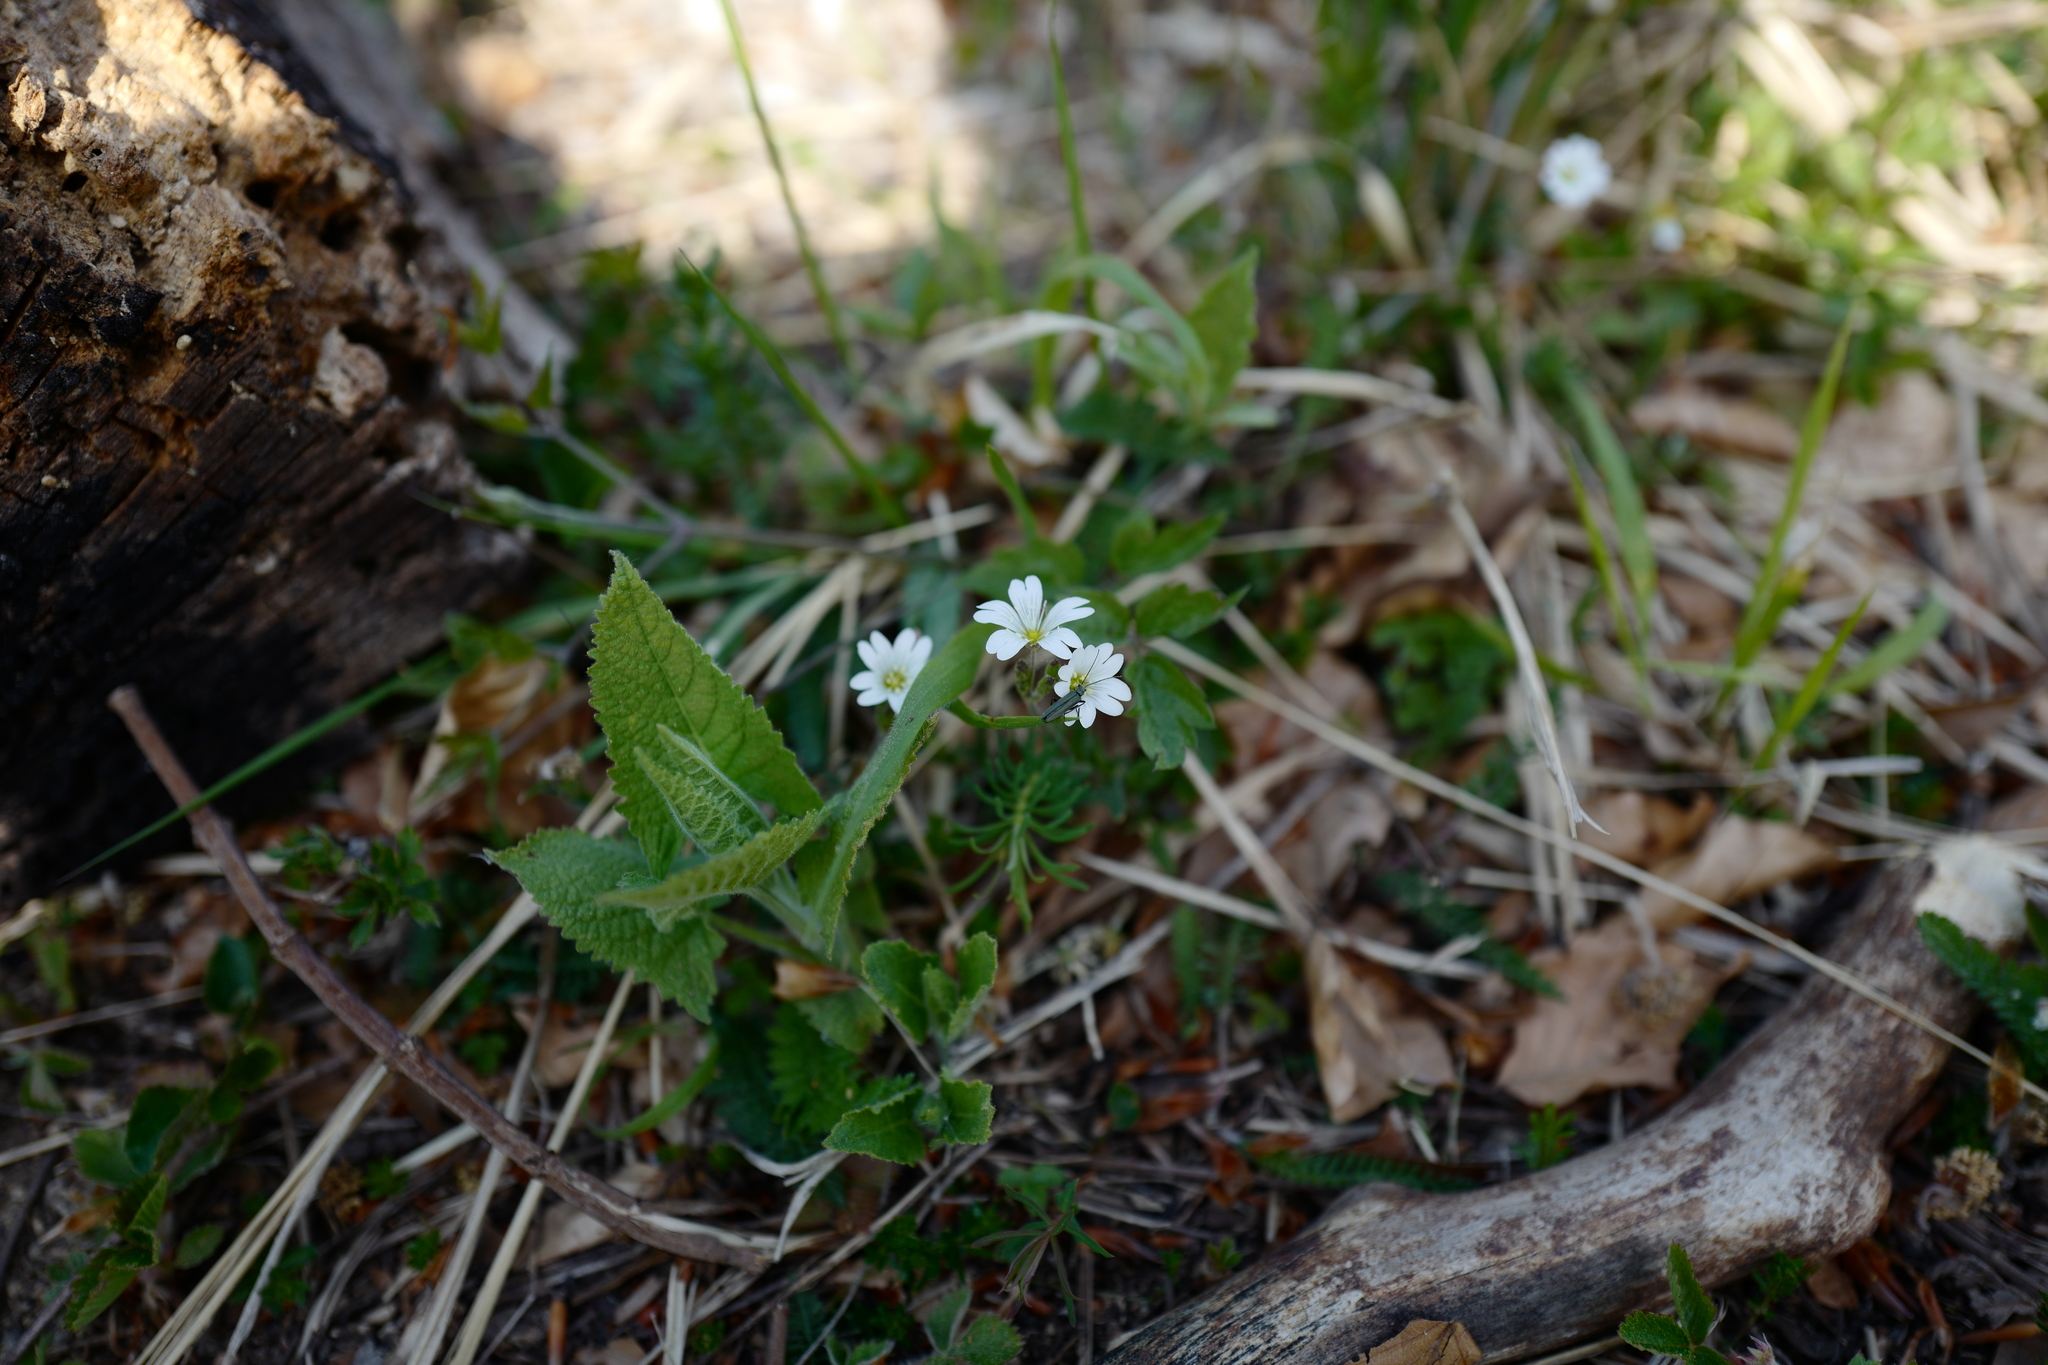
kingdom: Plantae
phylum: Tracheophyta
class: Magnoliopsida
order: Caryophyllales
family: Caryophyllaceae
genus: Cerastium
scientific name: Cerastium arvense
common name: Field mouse-ear
